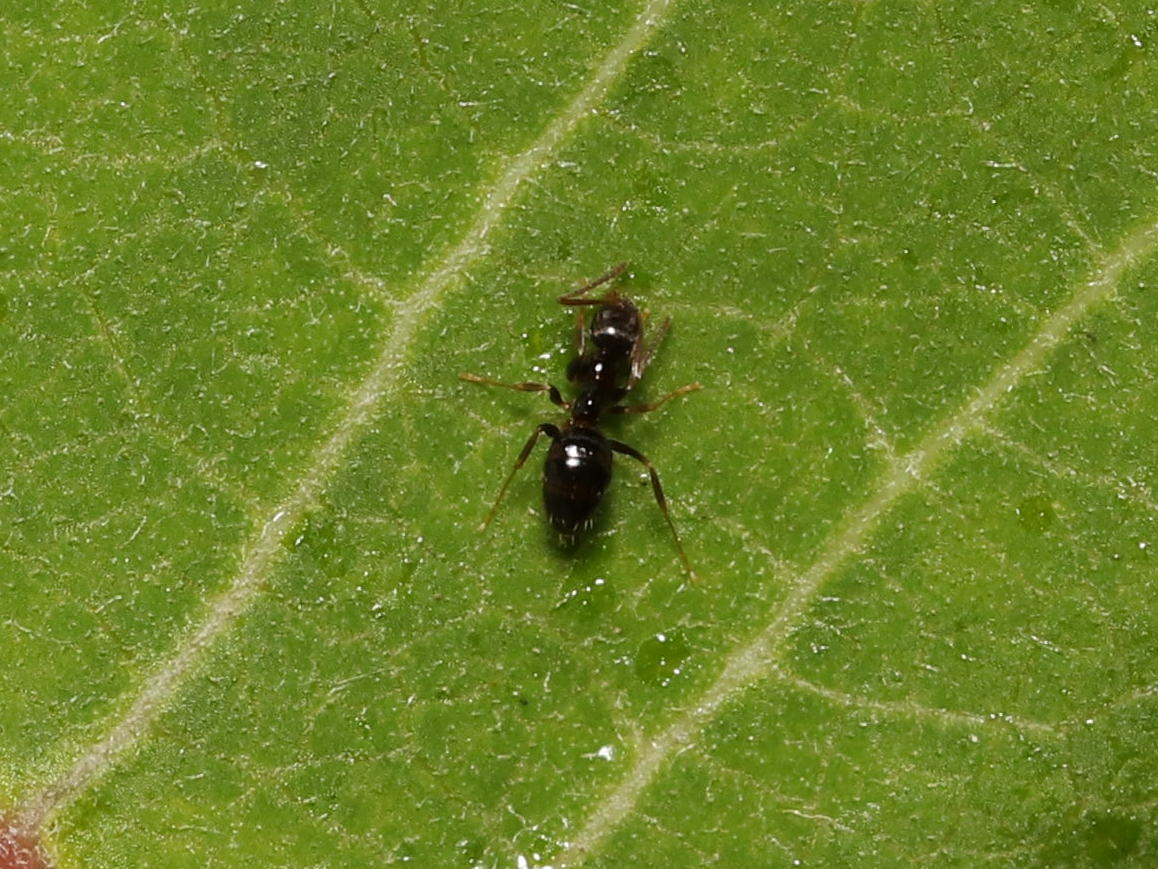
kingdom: Animalia
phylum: Arthropoda
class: Insecta
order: Hymenoptera
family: Formicidae
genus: Nylanderia
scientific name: Nylanderia parvula
